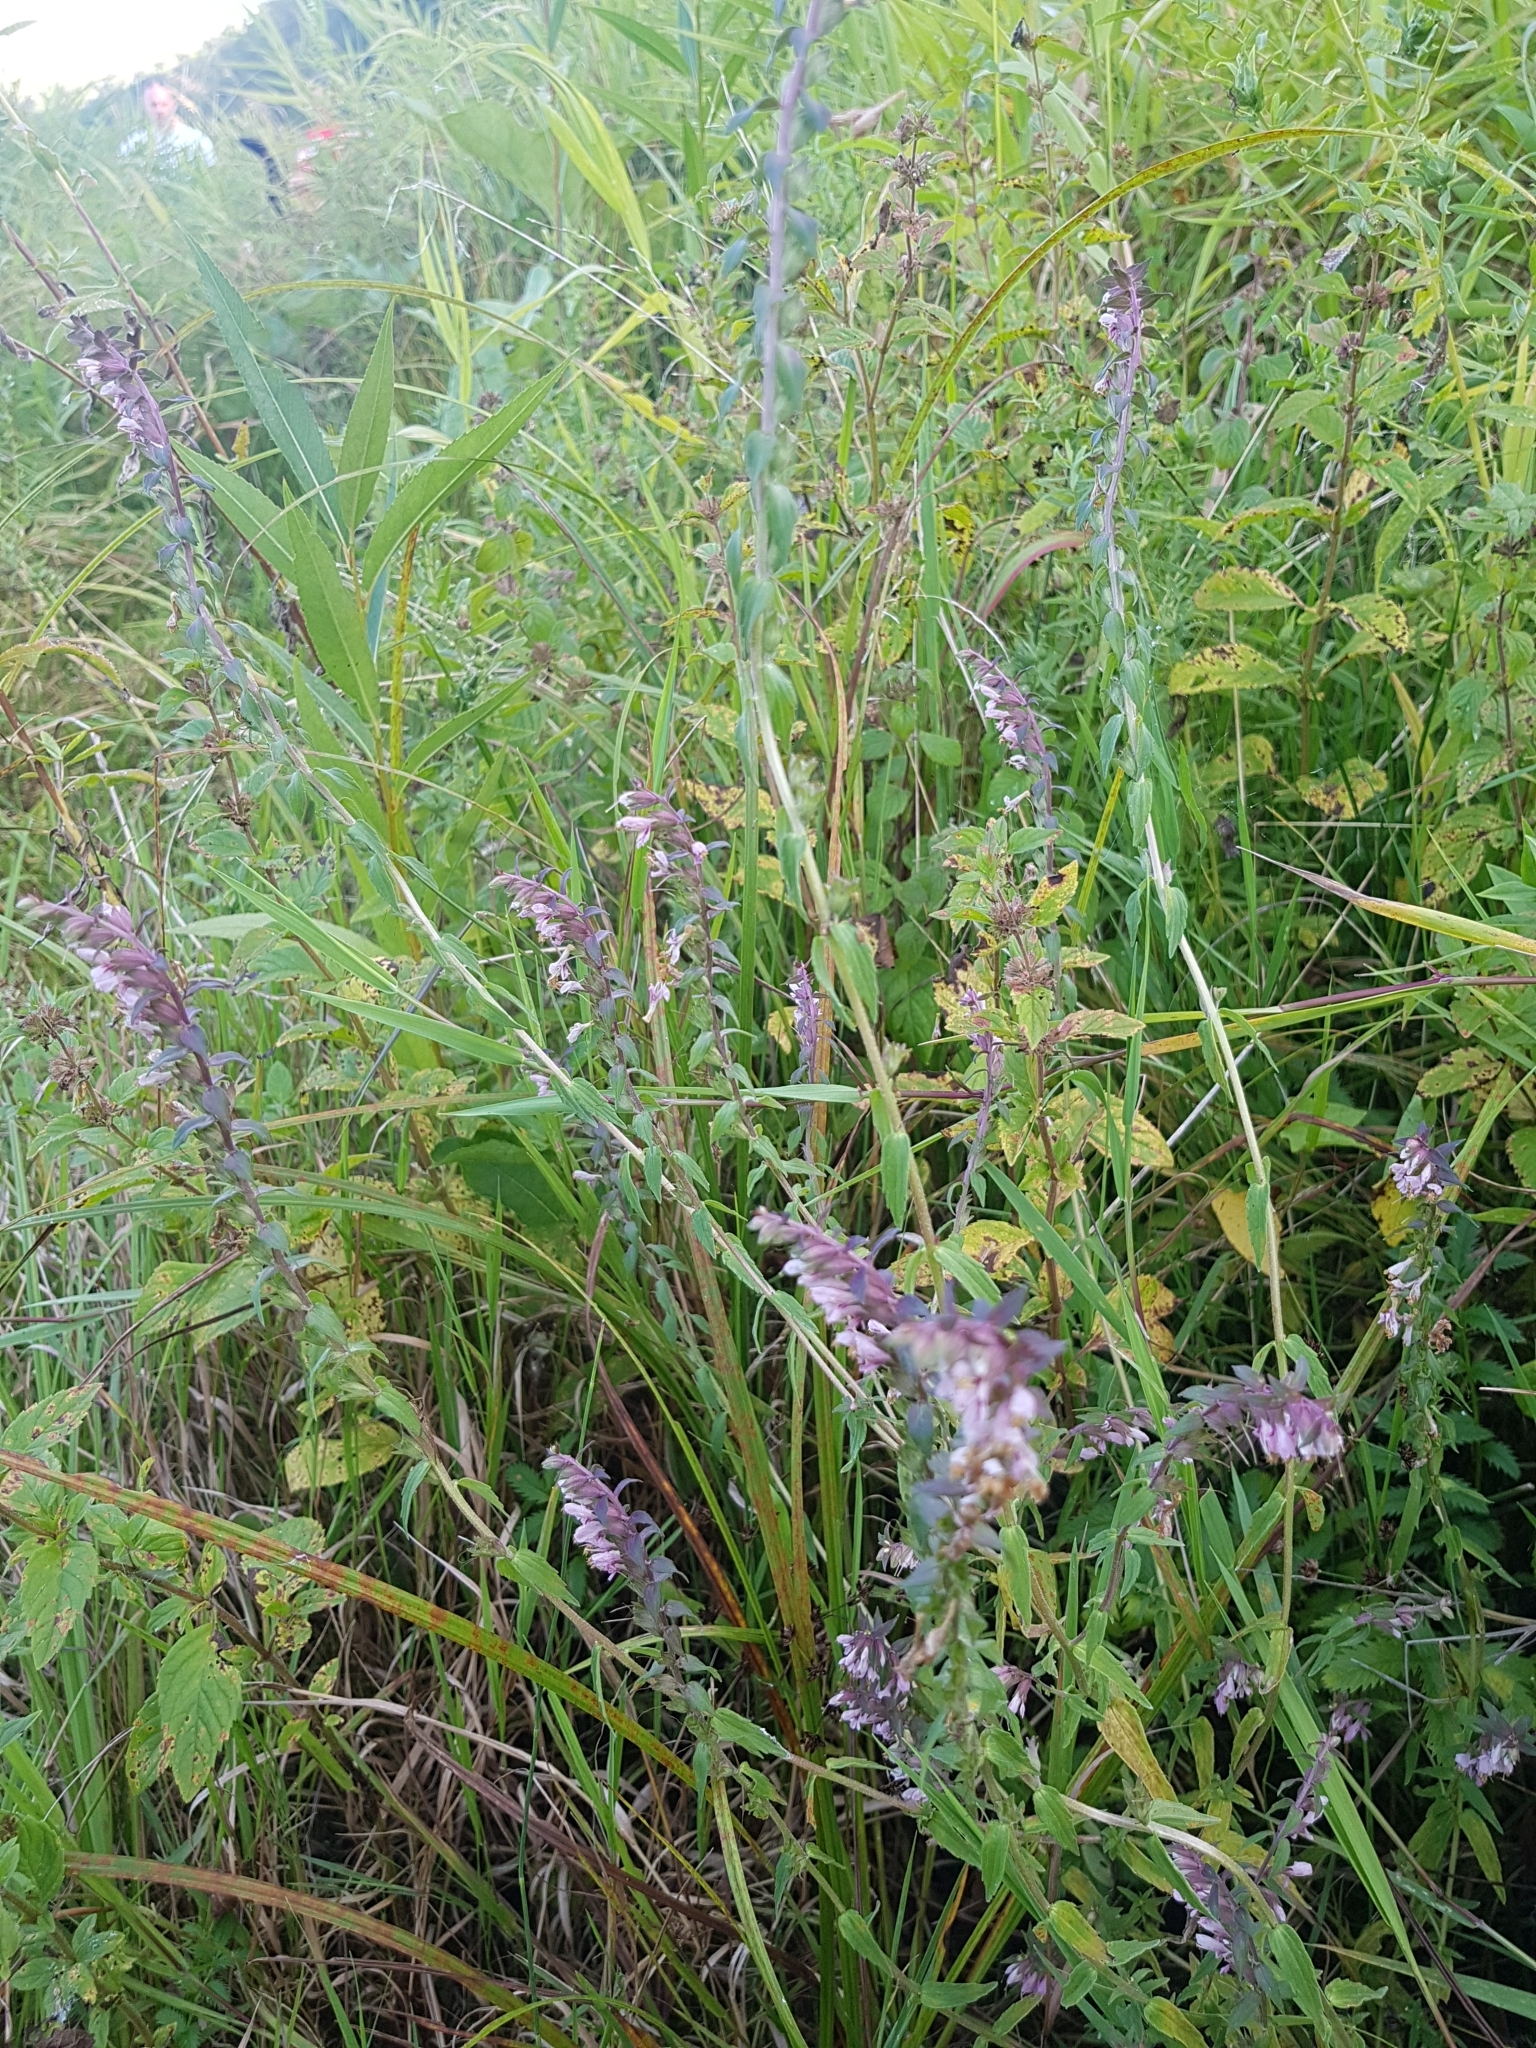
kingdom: Plantae
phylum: Tracheophyta
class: Magnoliopsida
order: Lamiales
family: Orobanchaceae
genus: Odontites
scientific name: Odontites vernus
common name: Red bartsia
